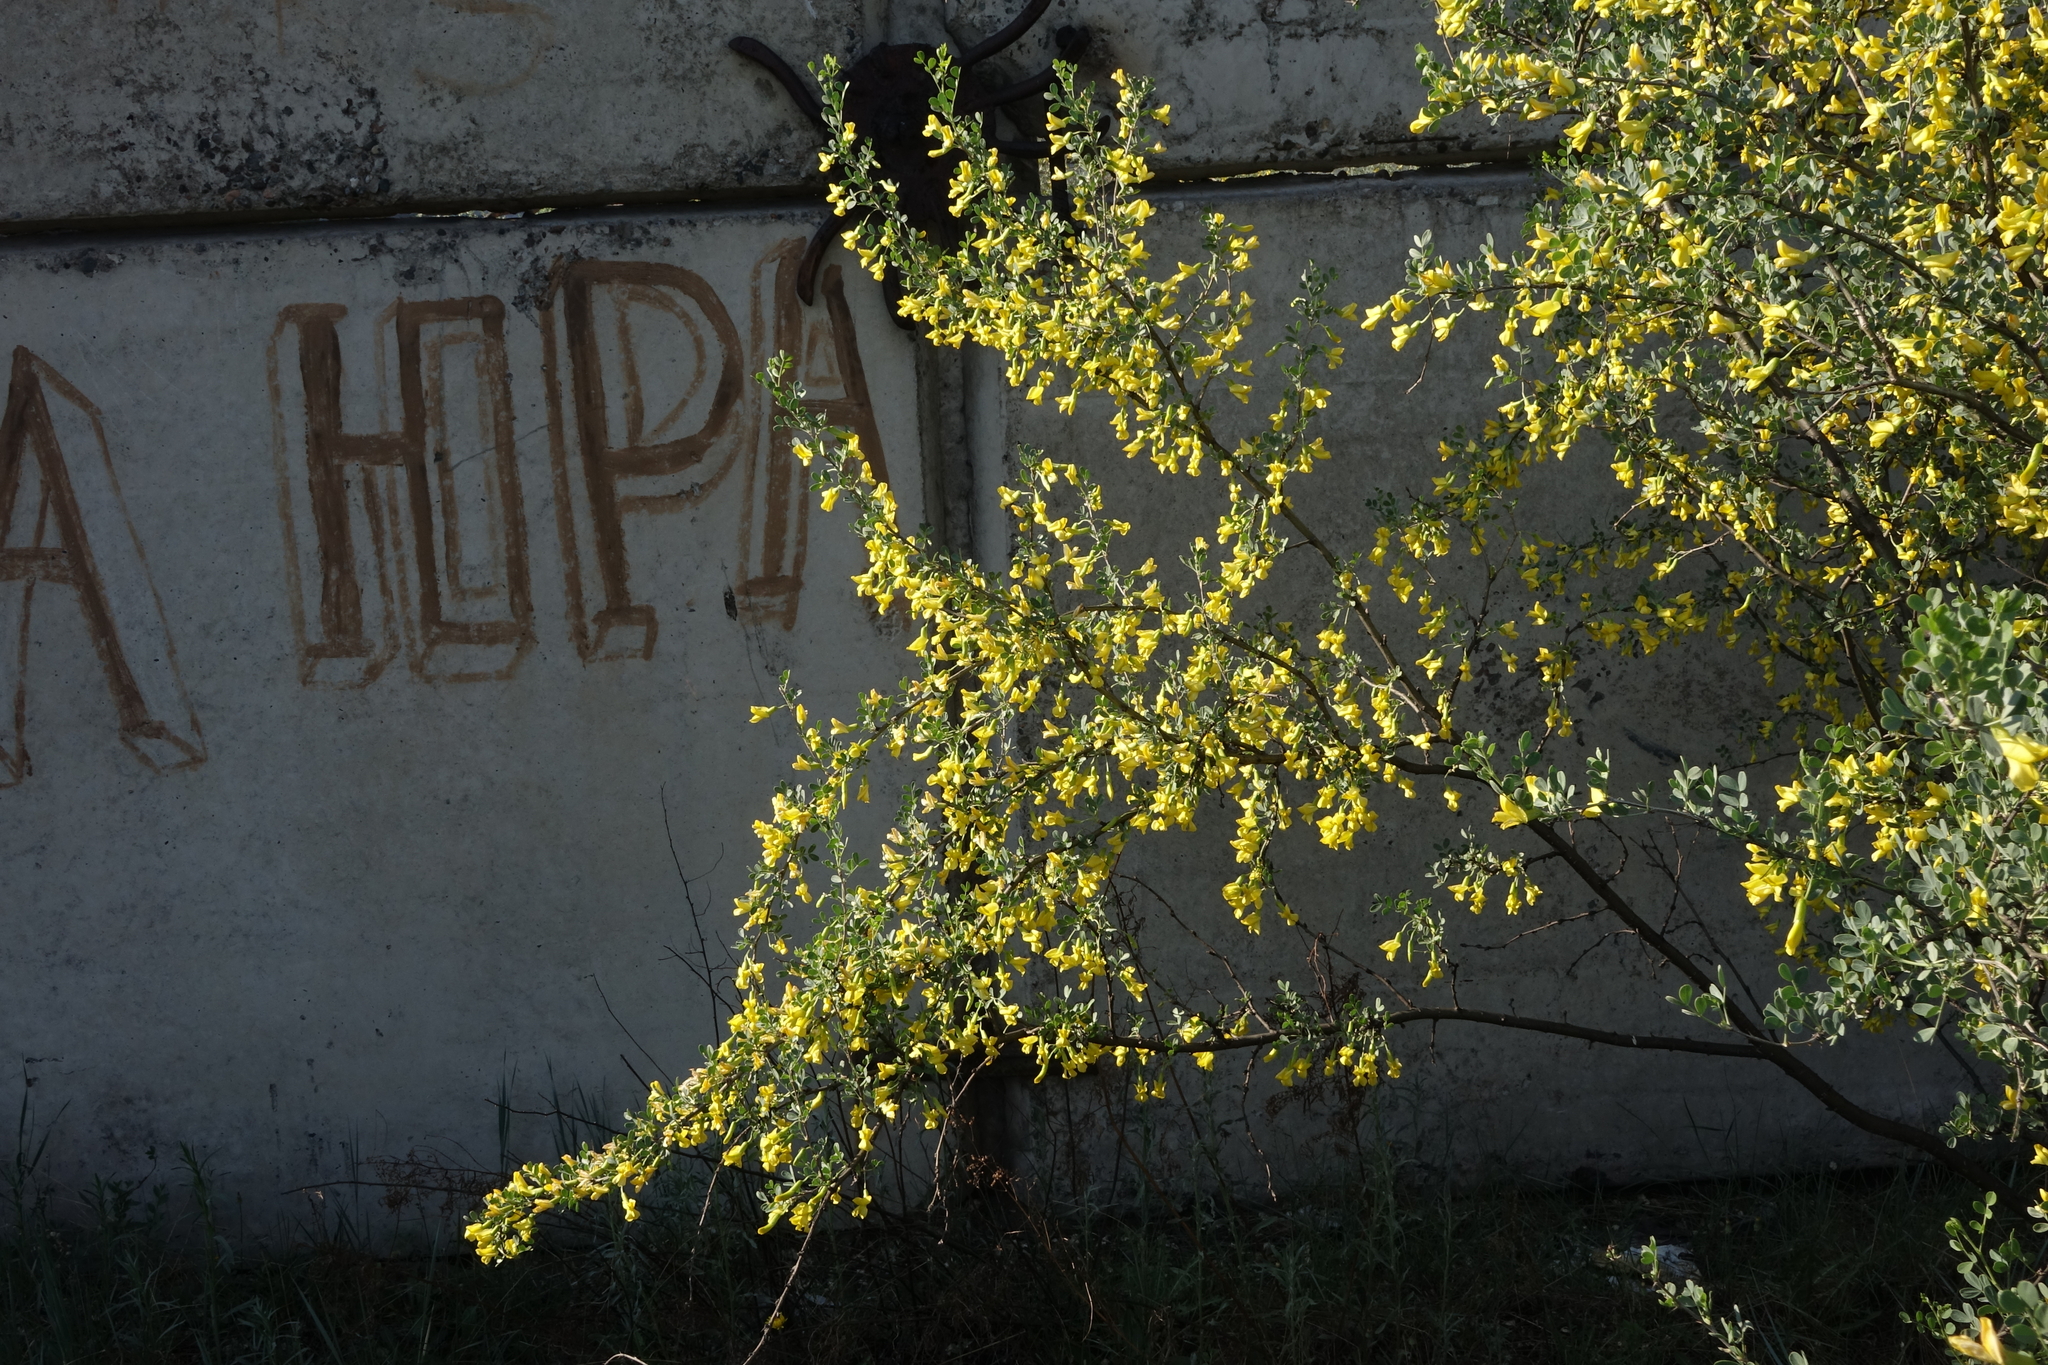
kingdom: Plantae
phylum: Tracheophyta
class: Magnoliopsida
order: Fabales
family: Fabaceae
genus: Caragana
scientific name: Caragana bungei
